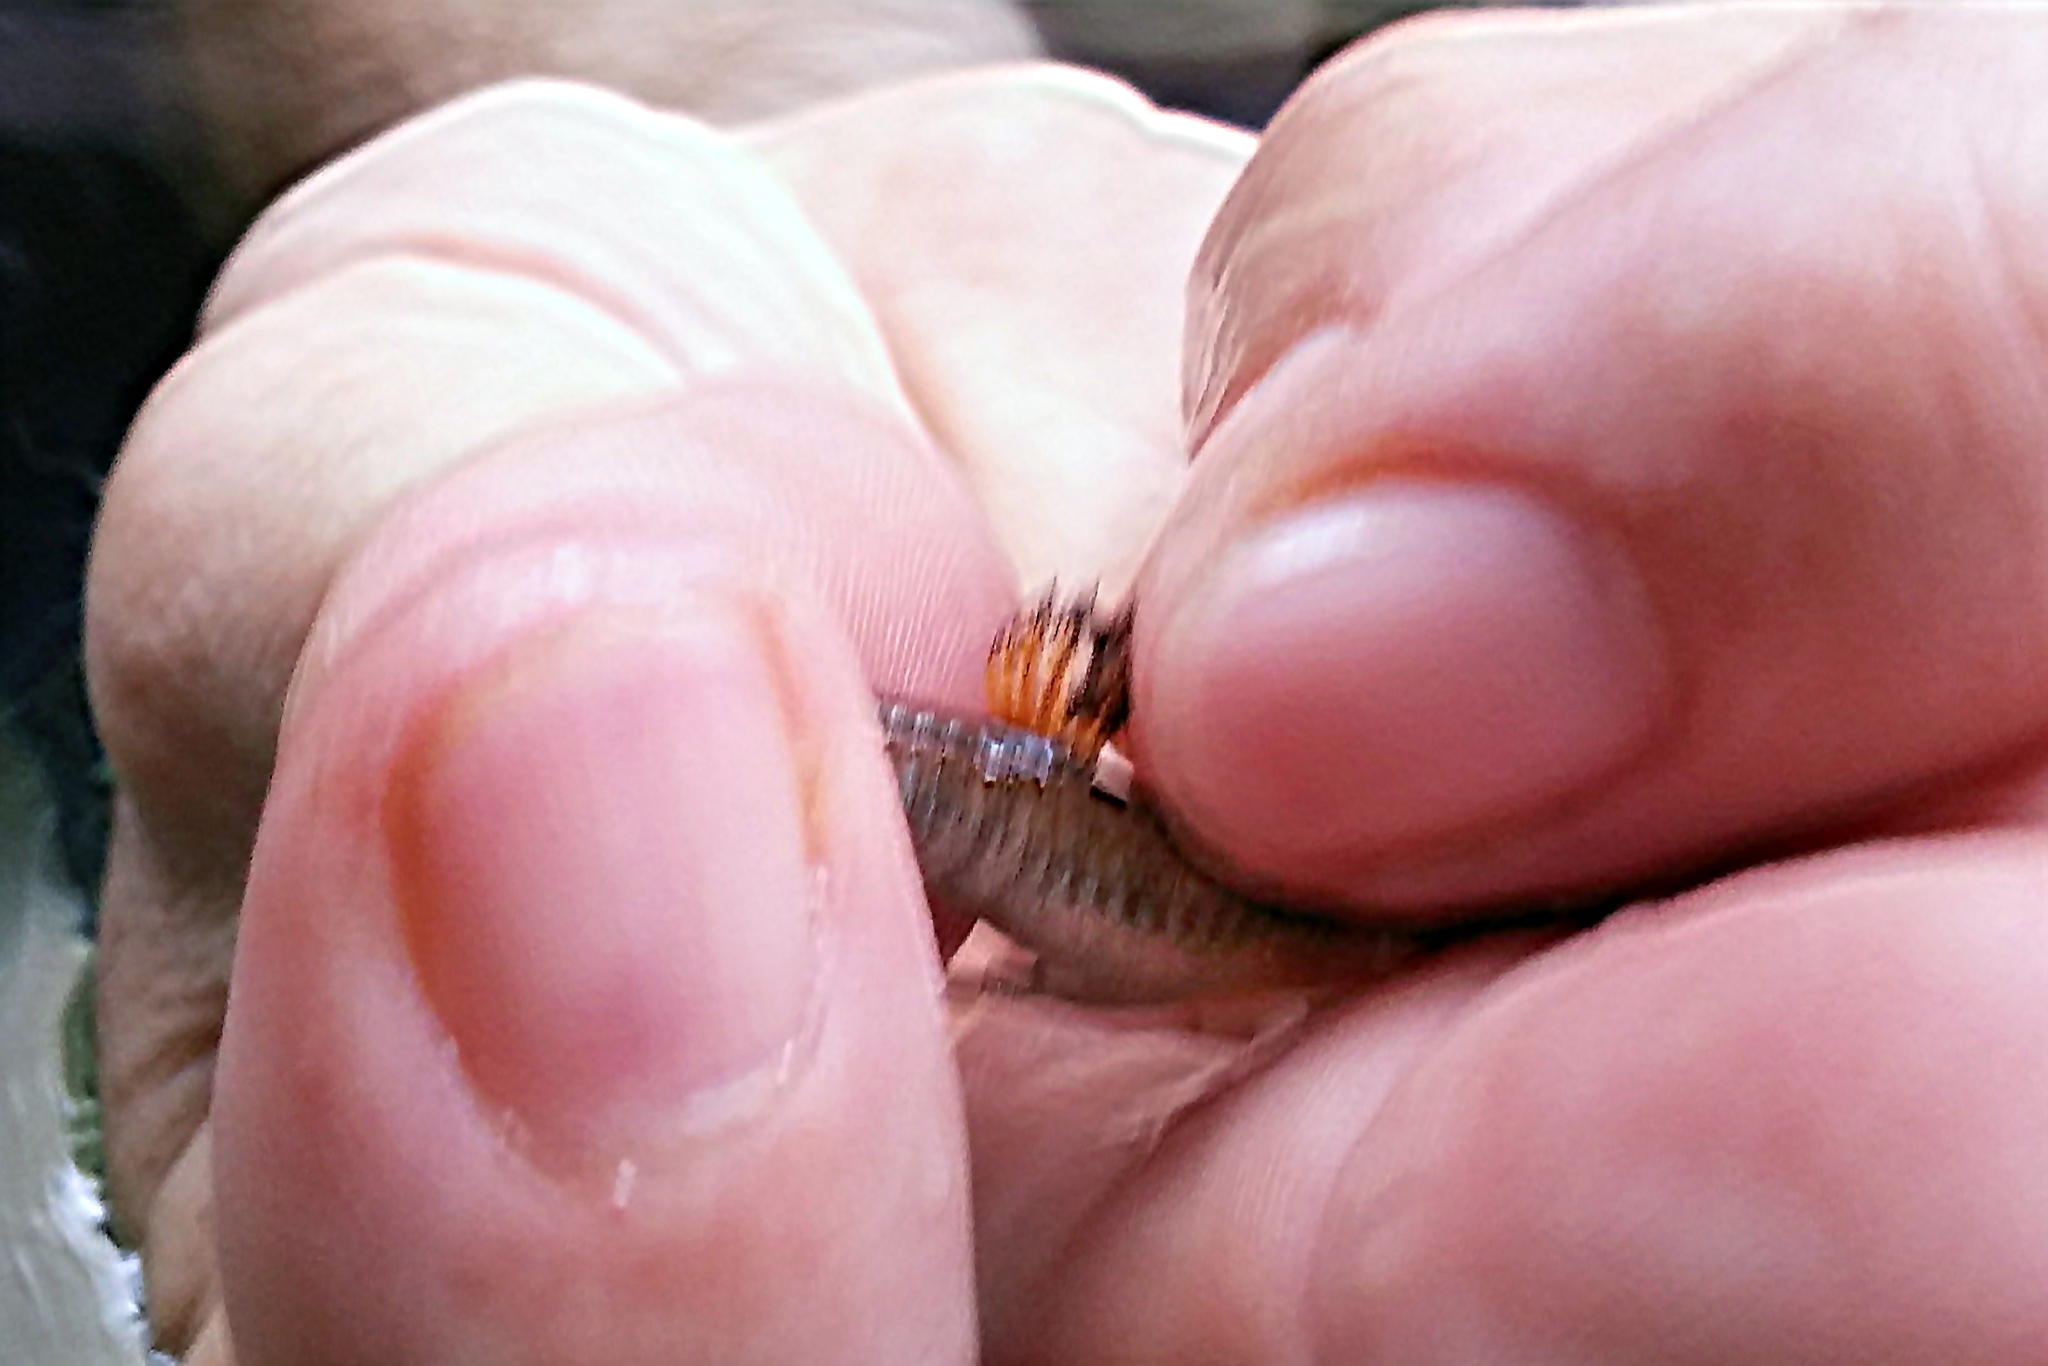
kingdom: Animalia
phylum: Chordata
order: Cyprinodontiformes
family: Poeciliidae
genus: Limia
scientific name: Limia zonata
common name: Striped limia
